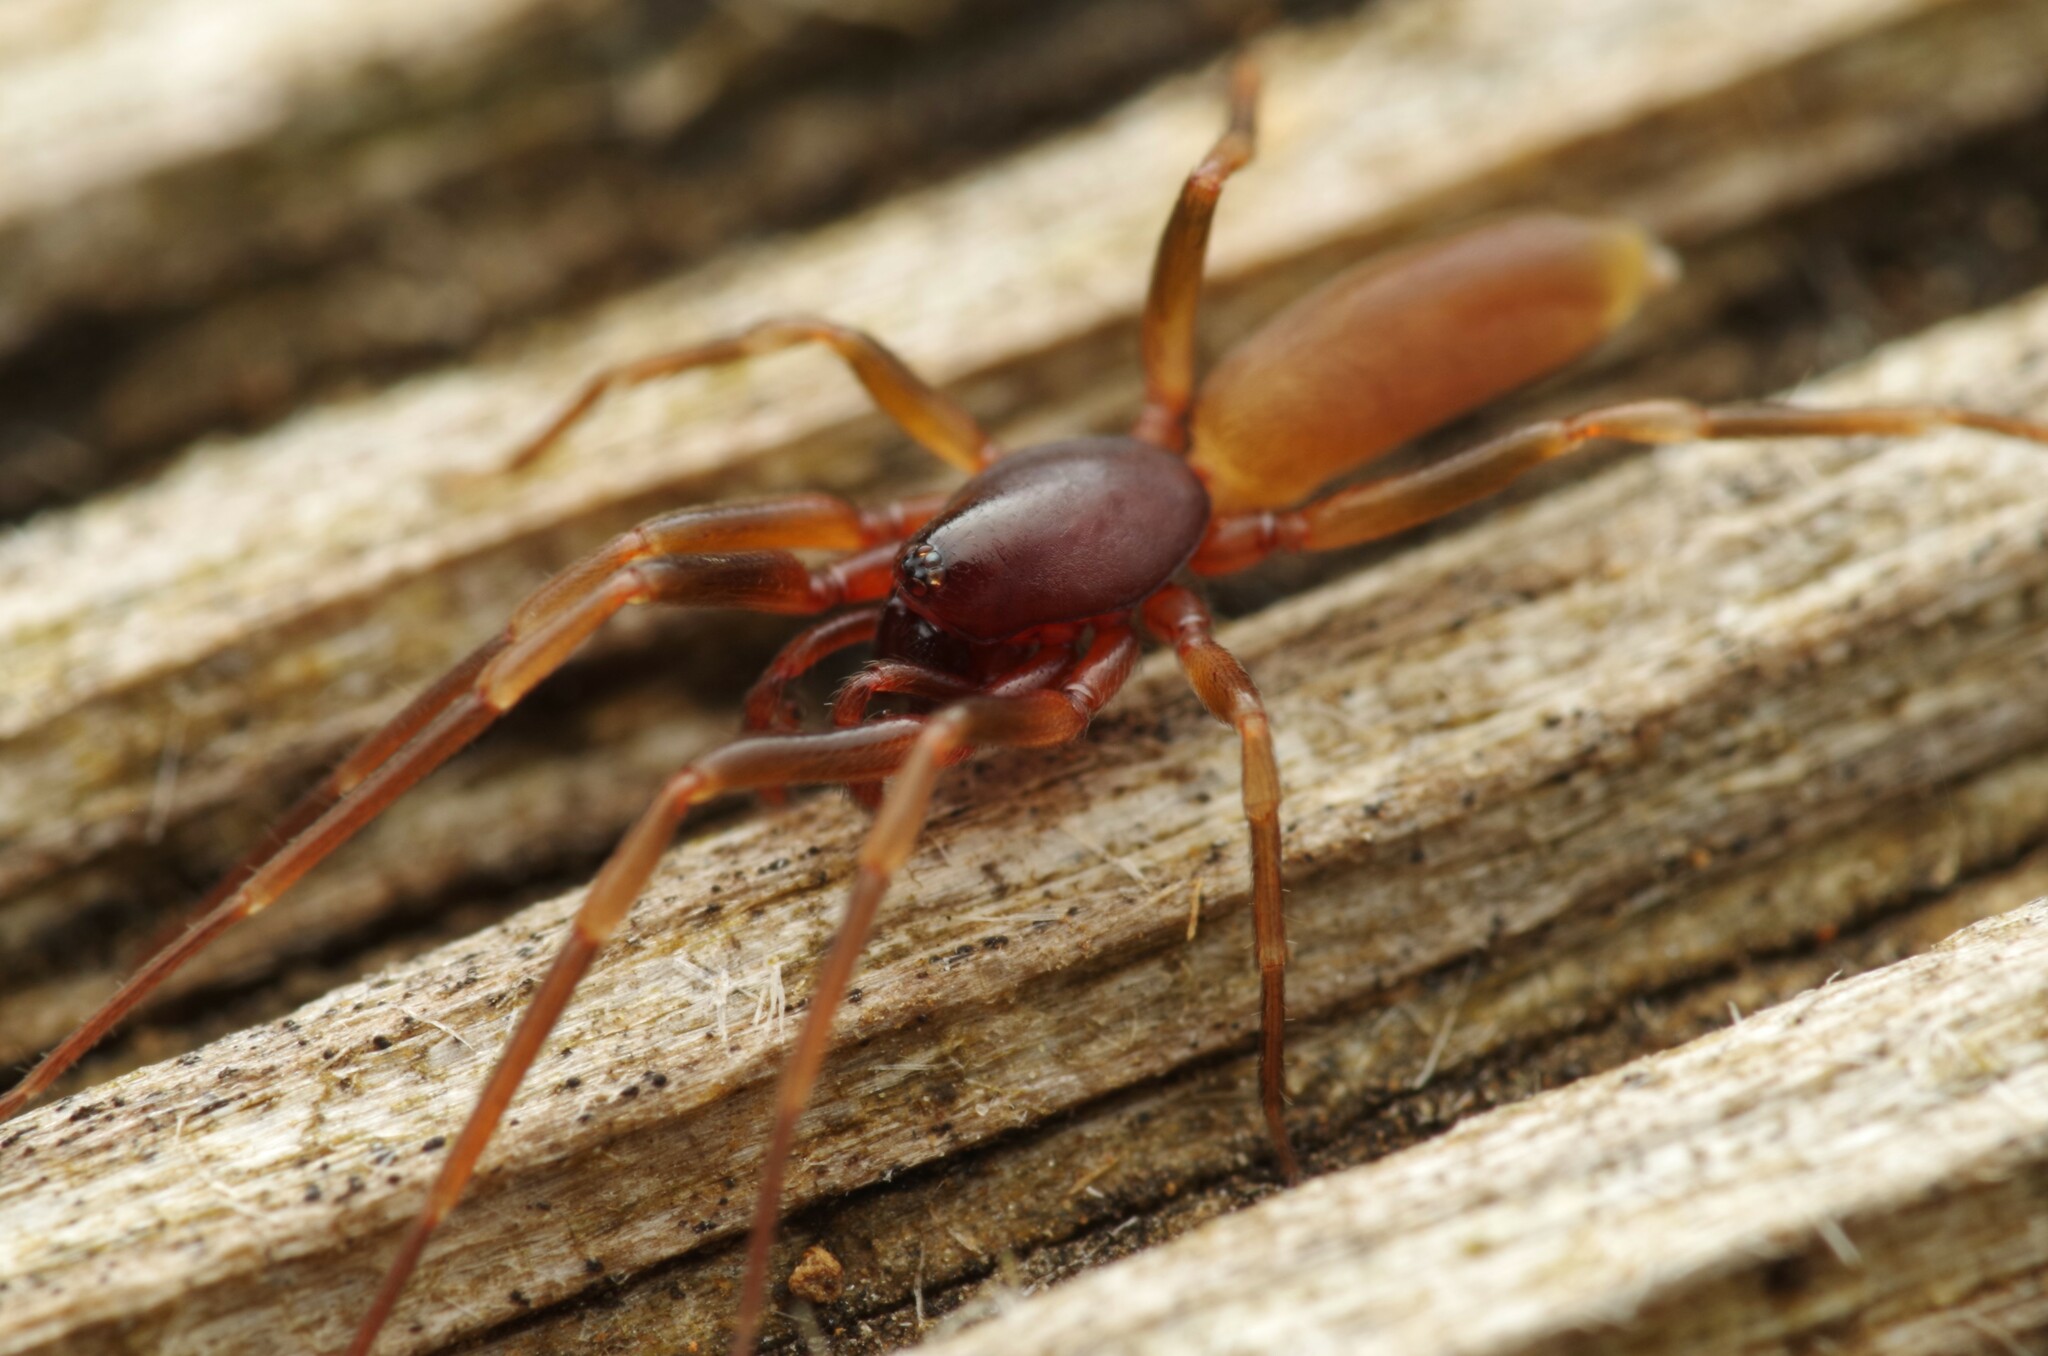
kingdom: Animalia
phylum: Arthropoda
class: Arachnida
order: Araneae
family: Dysderidae
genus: Harpactea
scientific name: Harpactea hombergi
